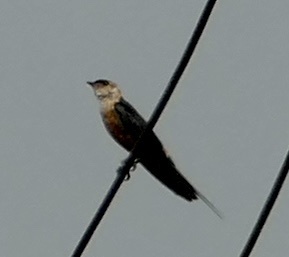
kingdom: Animalia
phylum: Chordata
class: Aves
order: Passeriformes
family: Hirundinidae
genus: Cecropis
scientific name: Cecropis senegalensis
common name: Mosque swallow
